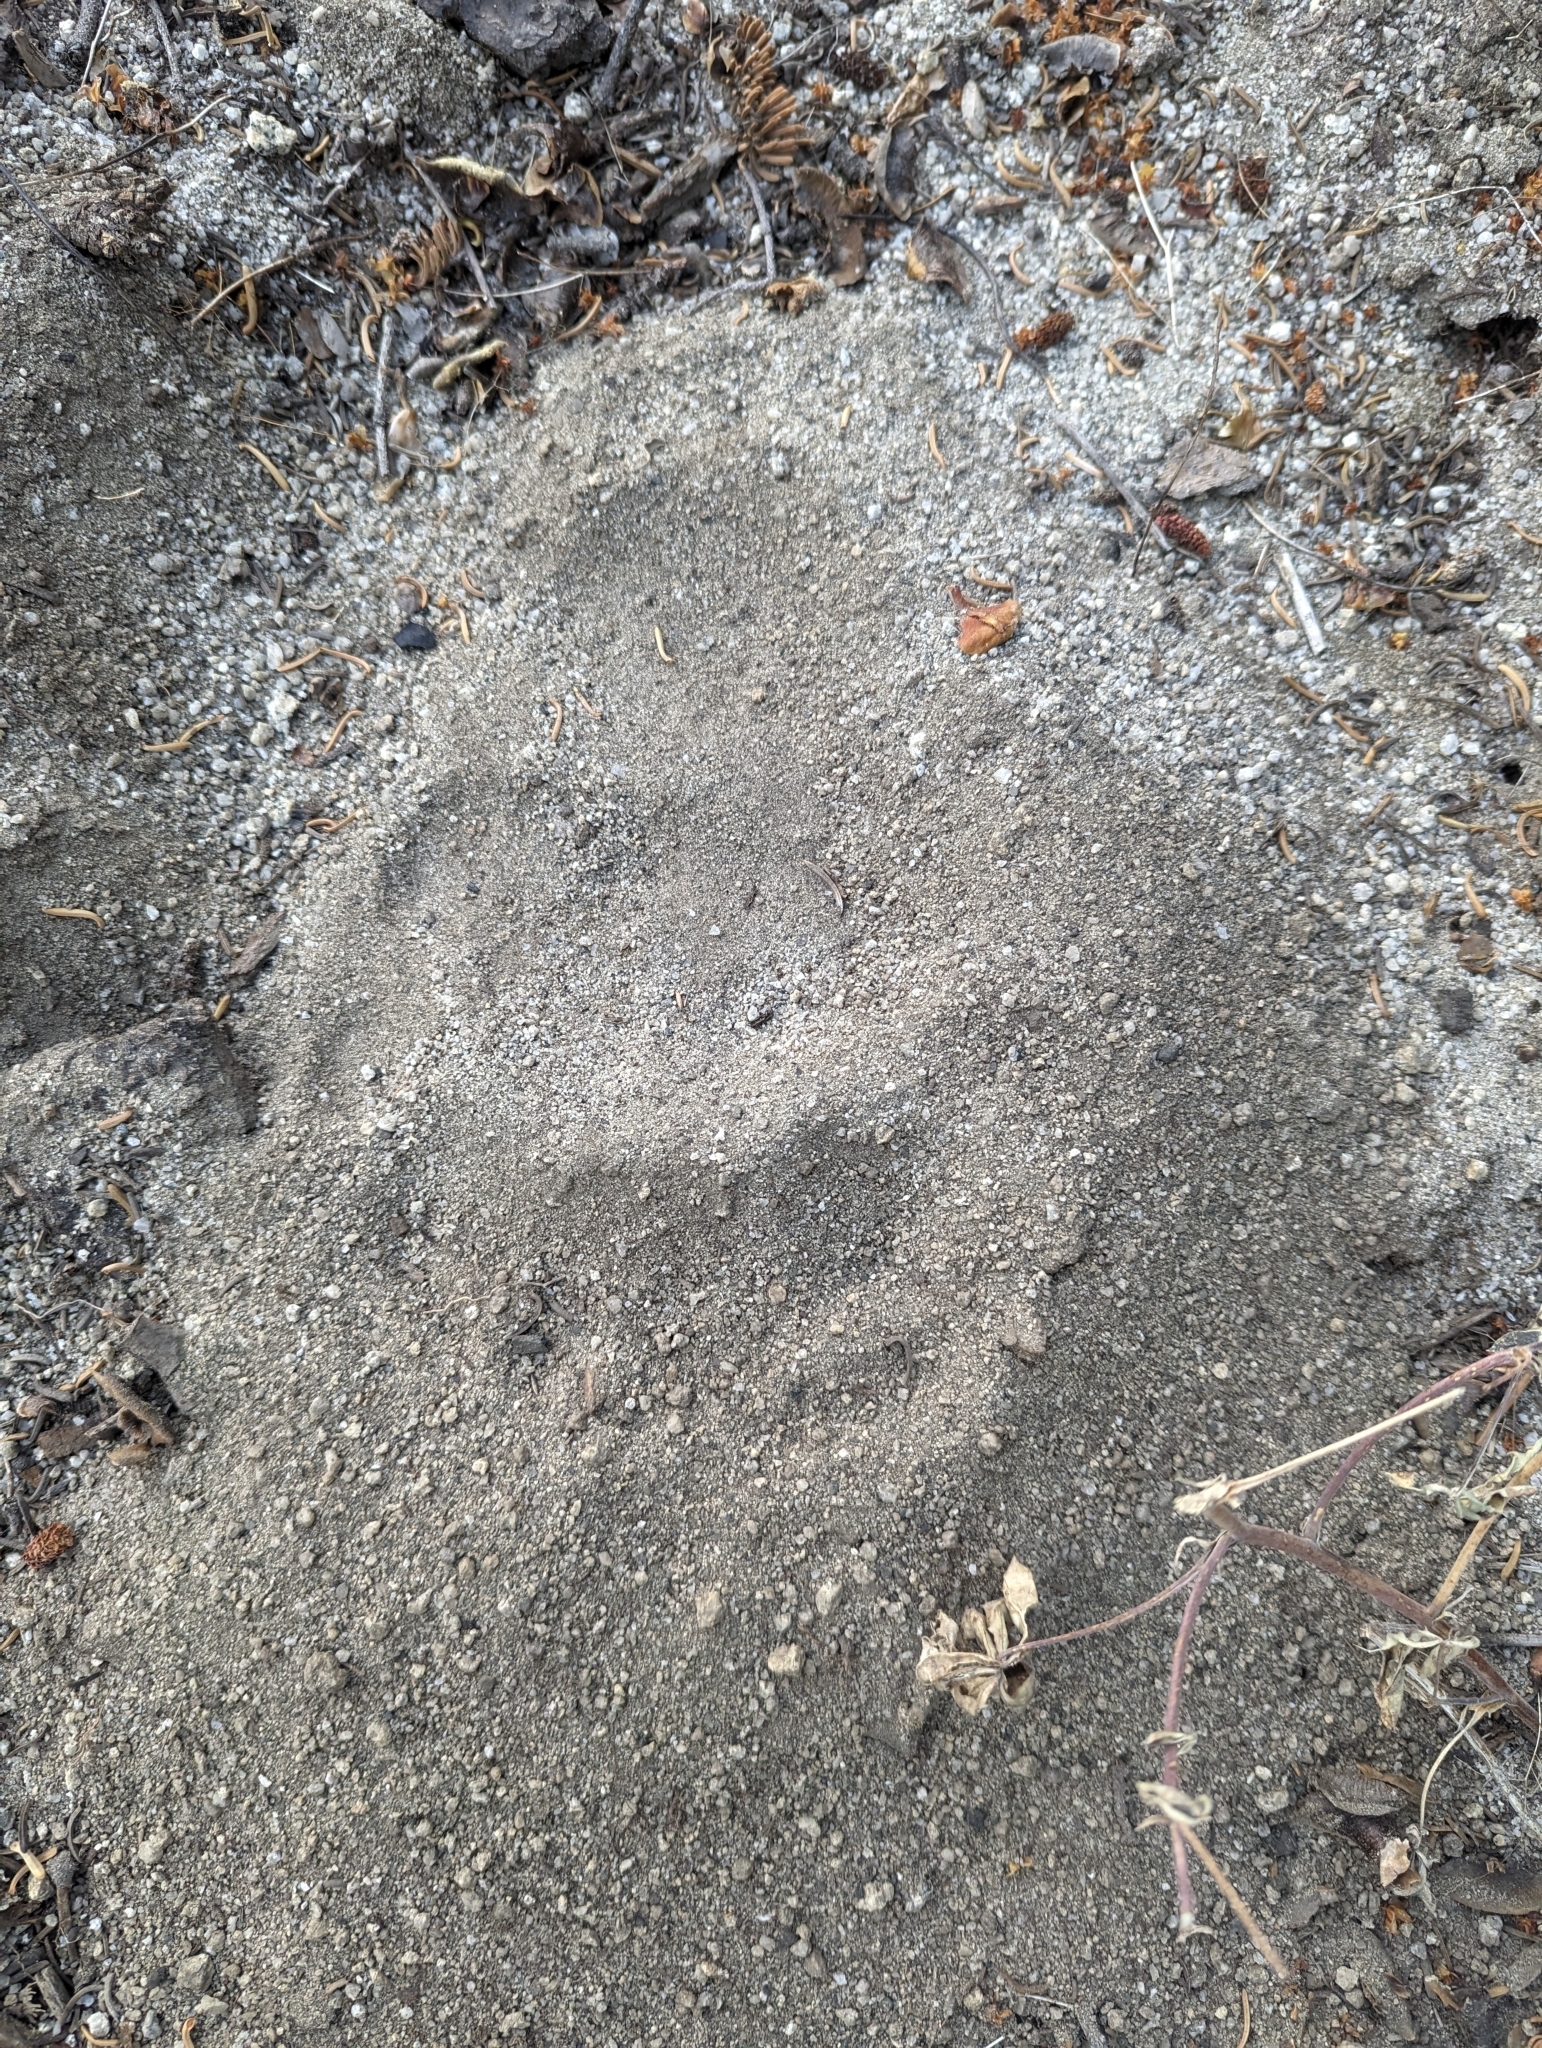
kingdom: Animalia
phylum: Chordata
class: Mammalia
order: Carnivora
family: Ursidae
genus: Ursus
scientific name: Ursus americanus
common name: American black bear
